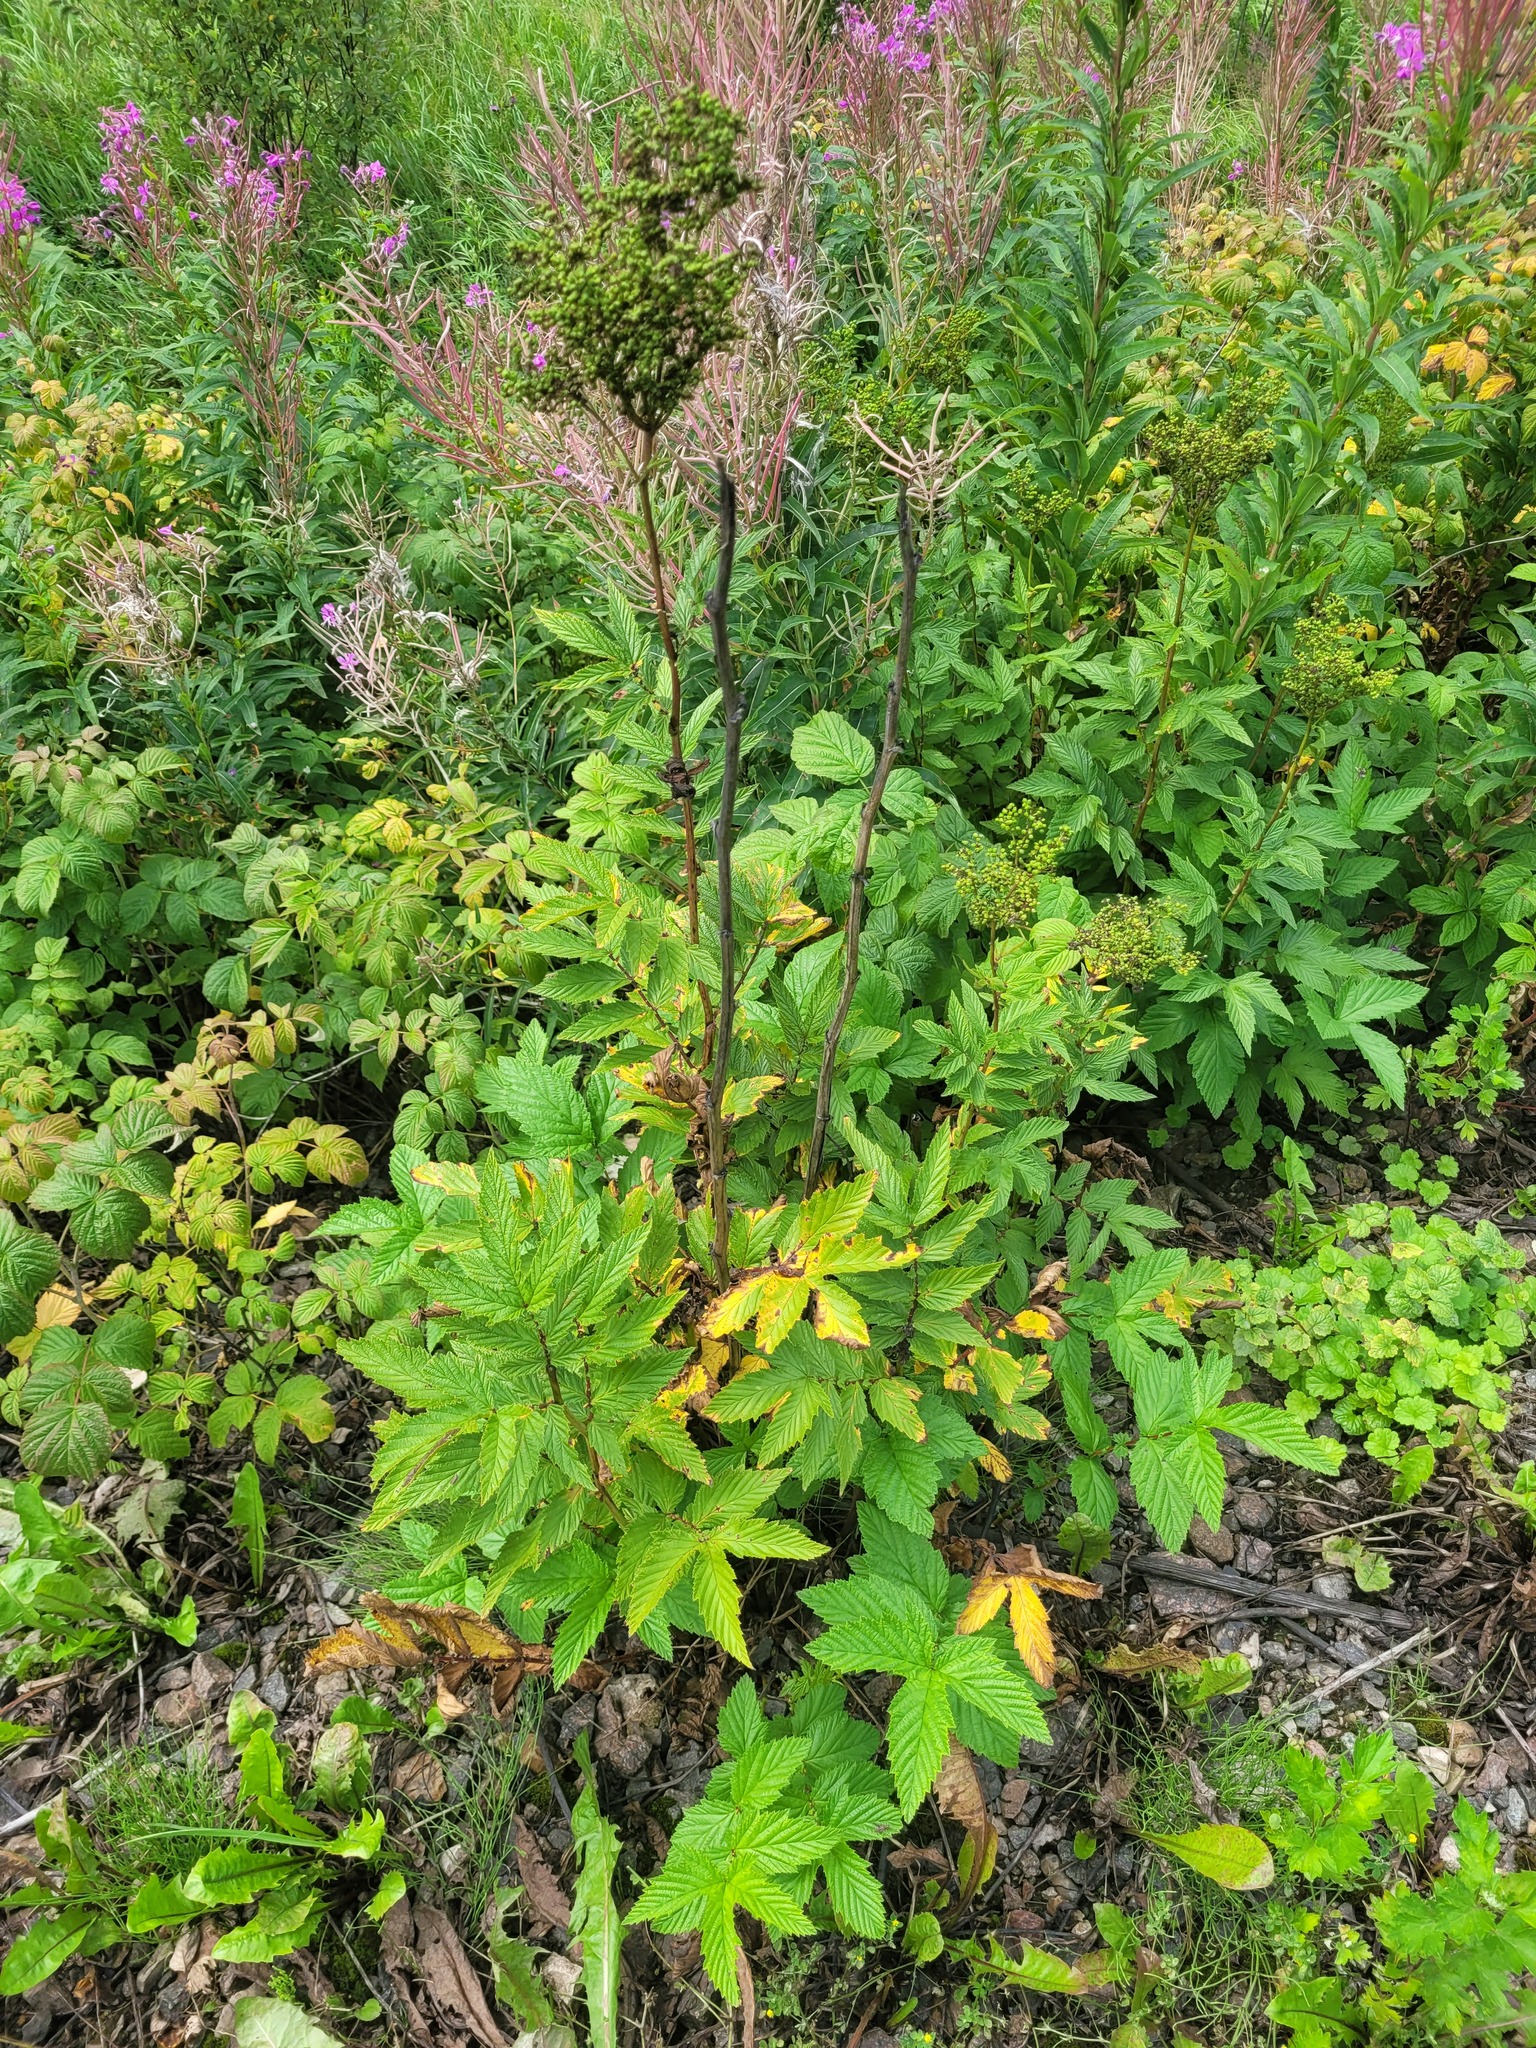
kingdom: Plantae
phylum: Tracheophyta
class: Magnoliopsida
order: Rosales
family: Rosaceae
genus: Filipendula
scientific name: Filipendula ulmaria
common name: Meadowsweet
